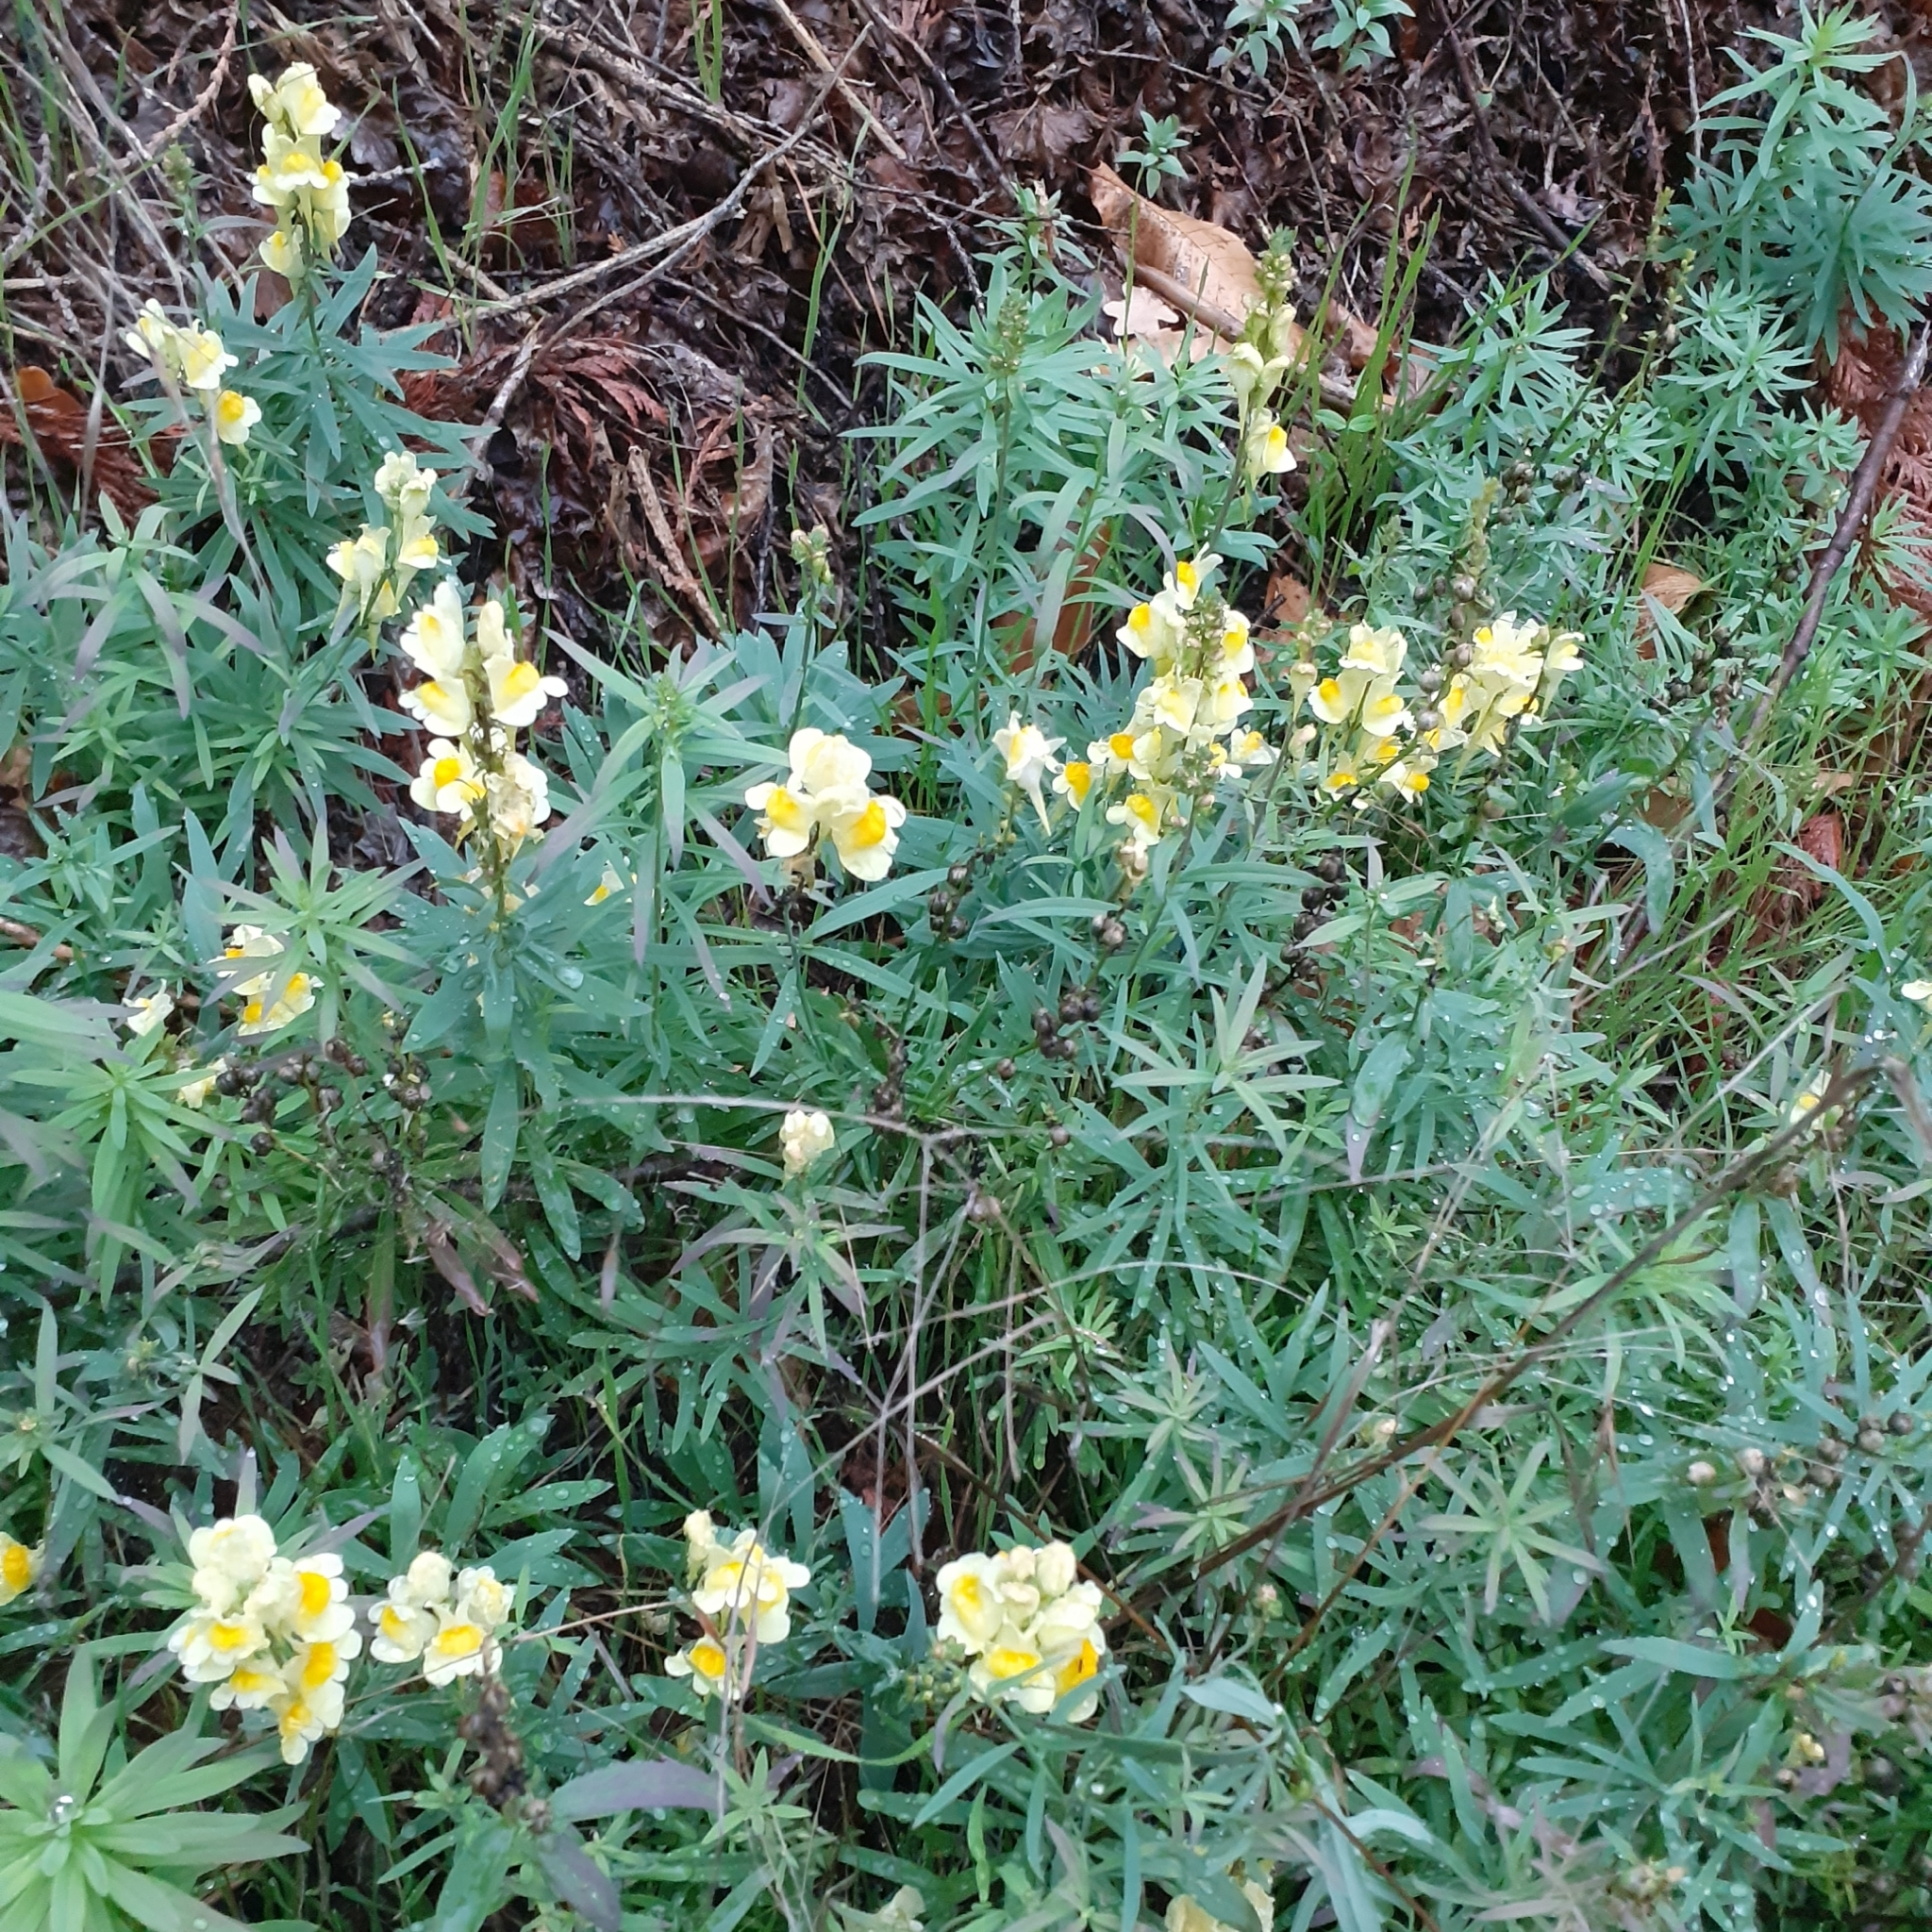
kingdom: Plantae
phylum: Tracheophyta
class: Magnoliopsida
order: Lamiales
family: Plantaginaceae
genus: Linaria
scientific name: Linaria vulgaris
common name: Butter and eggs
